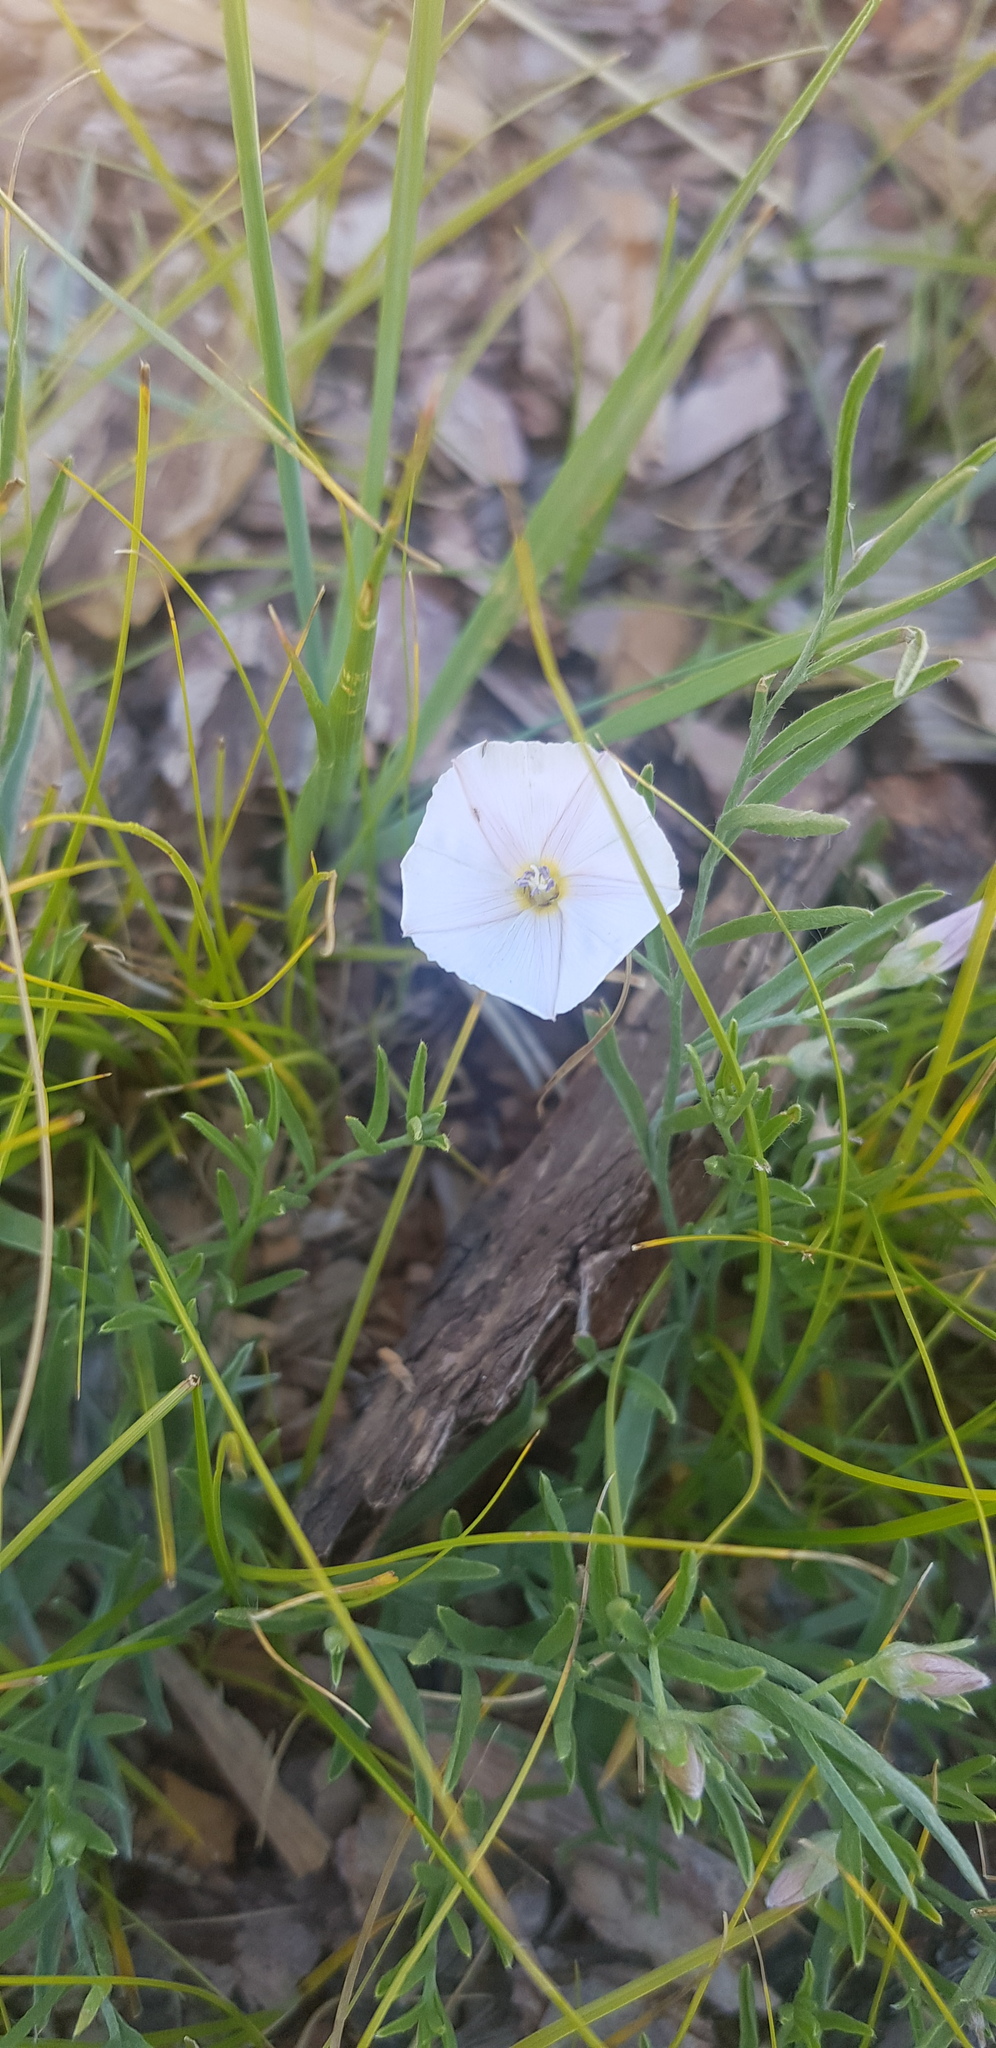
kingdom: Plantae
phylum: Tracheophyta
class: Magnoliopsida
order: Solanales
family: Convolvulaceae
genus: Convolvulus
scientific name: Convolvulus ammannii
